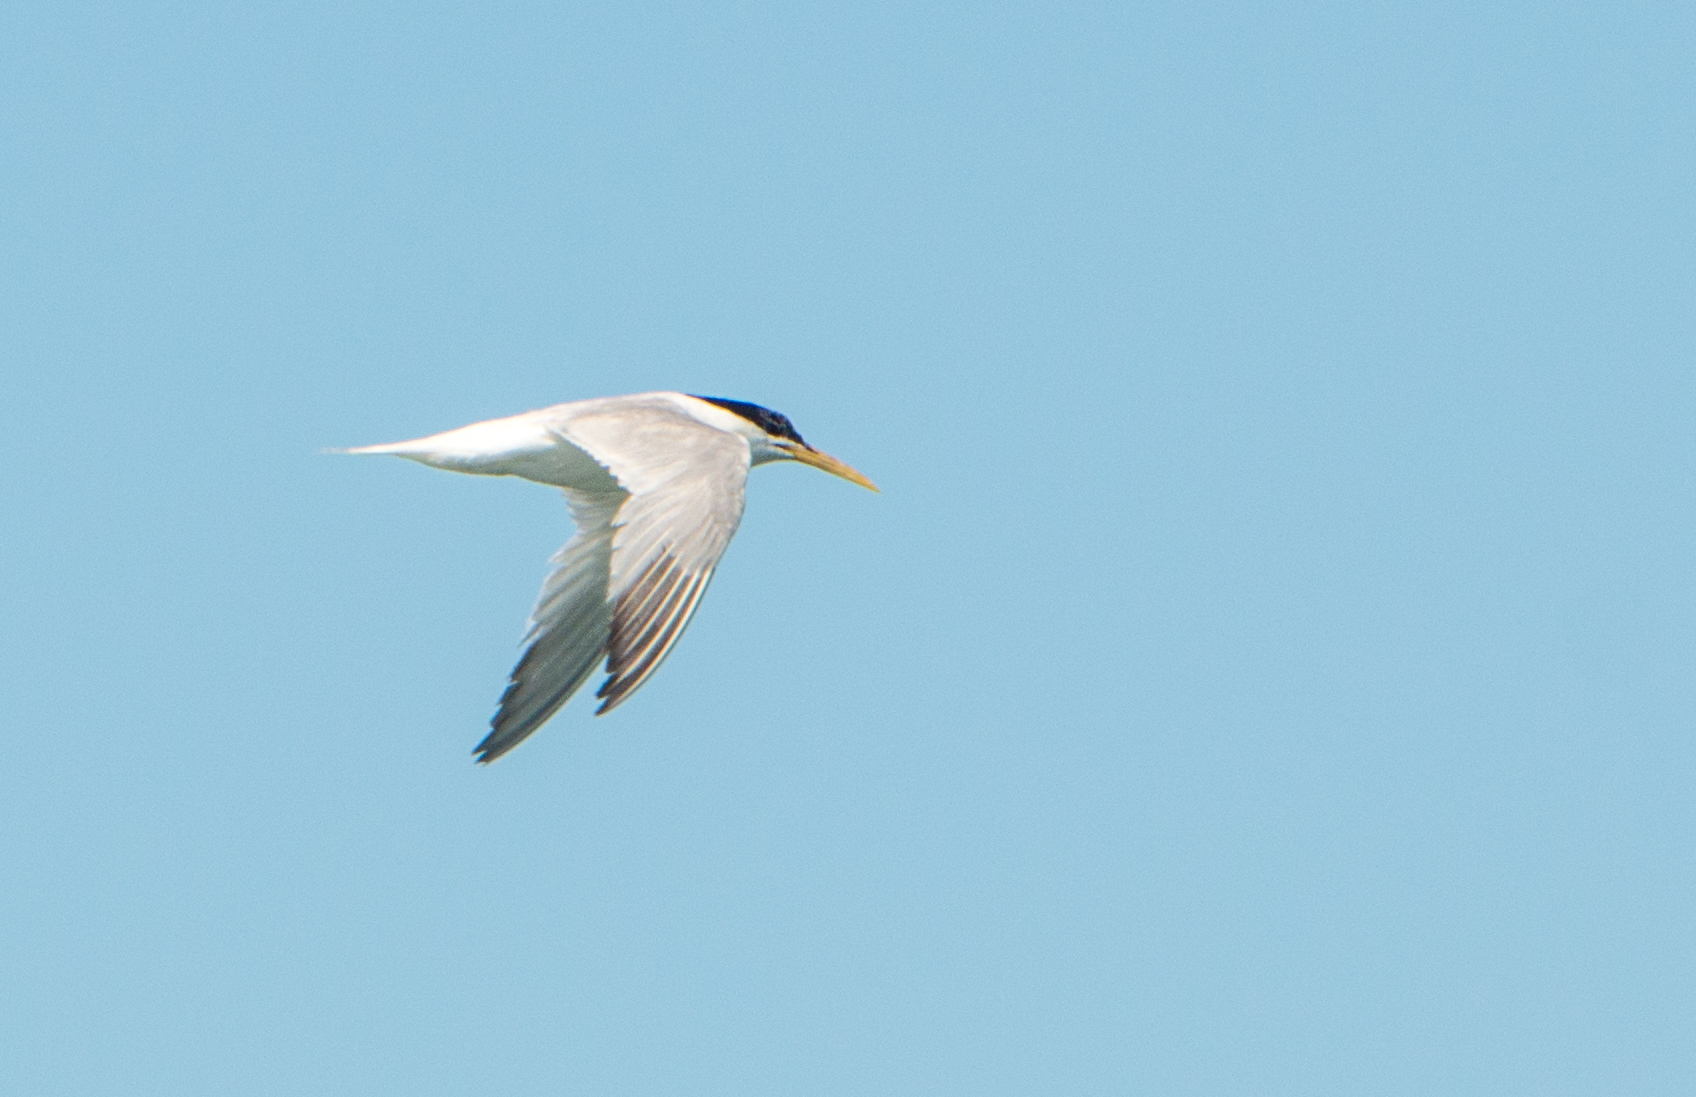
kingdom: Animalia
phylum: Chordata
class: Aves
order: Charadriiformes
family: Laridae
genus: Thalasseus
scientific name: Thalasseus acuflavidus
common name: Cabot's tern
